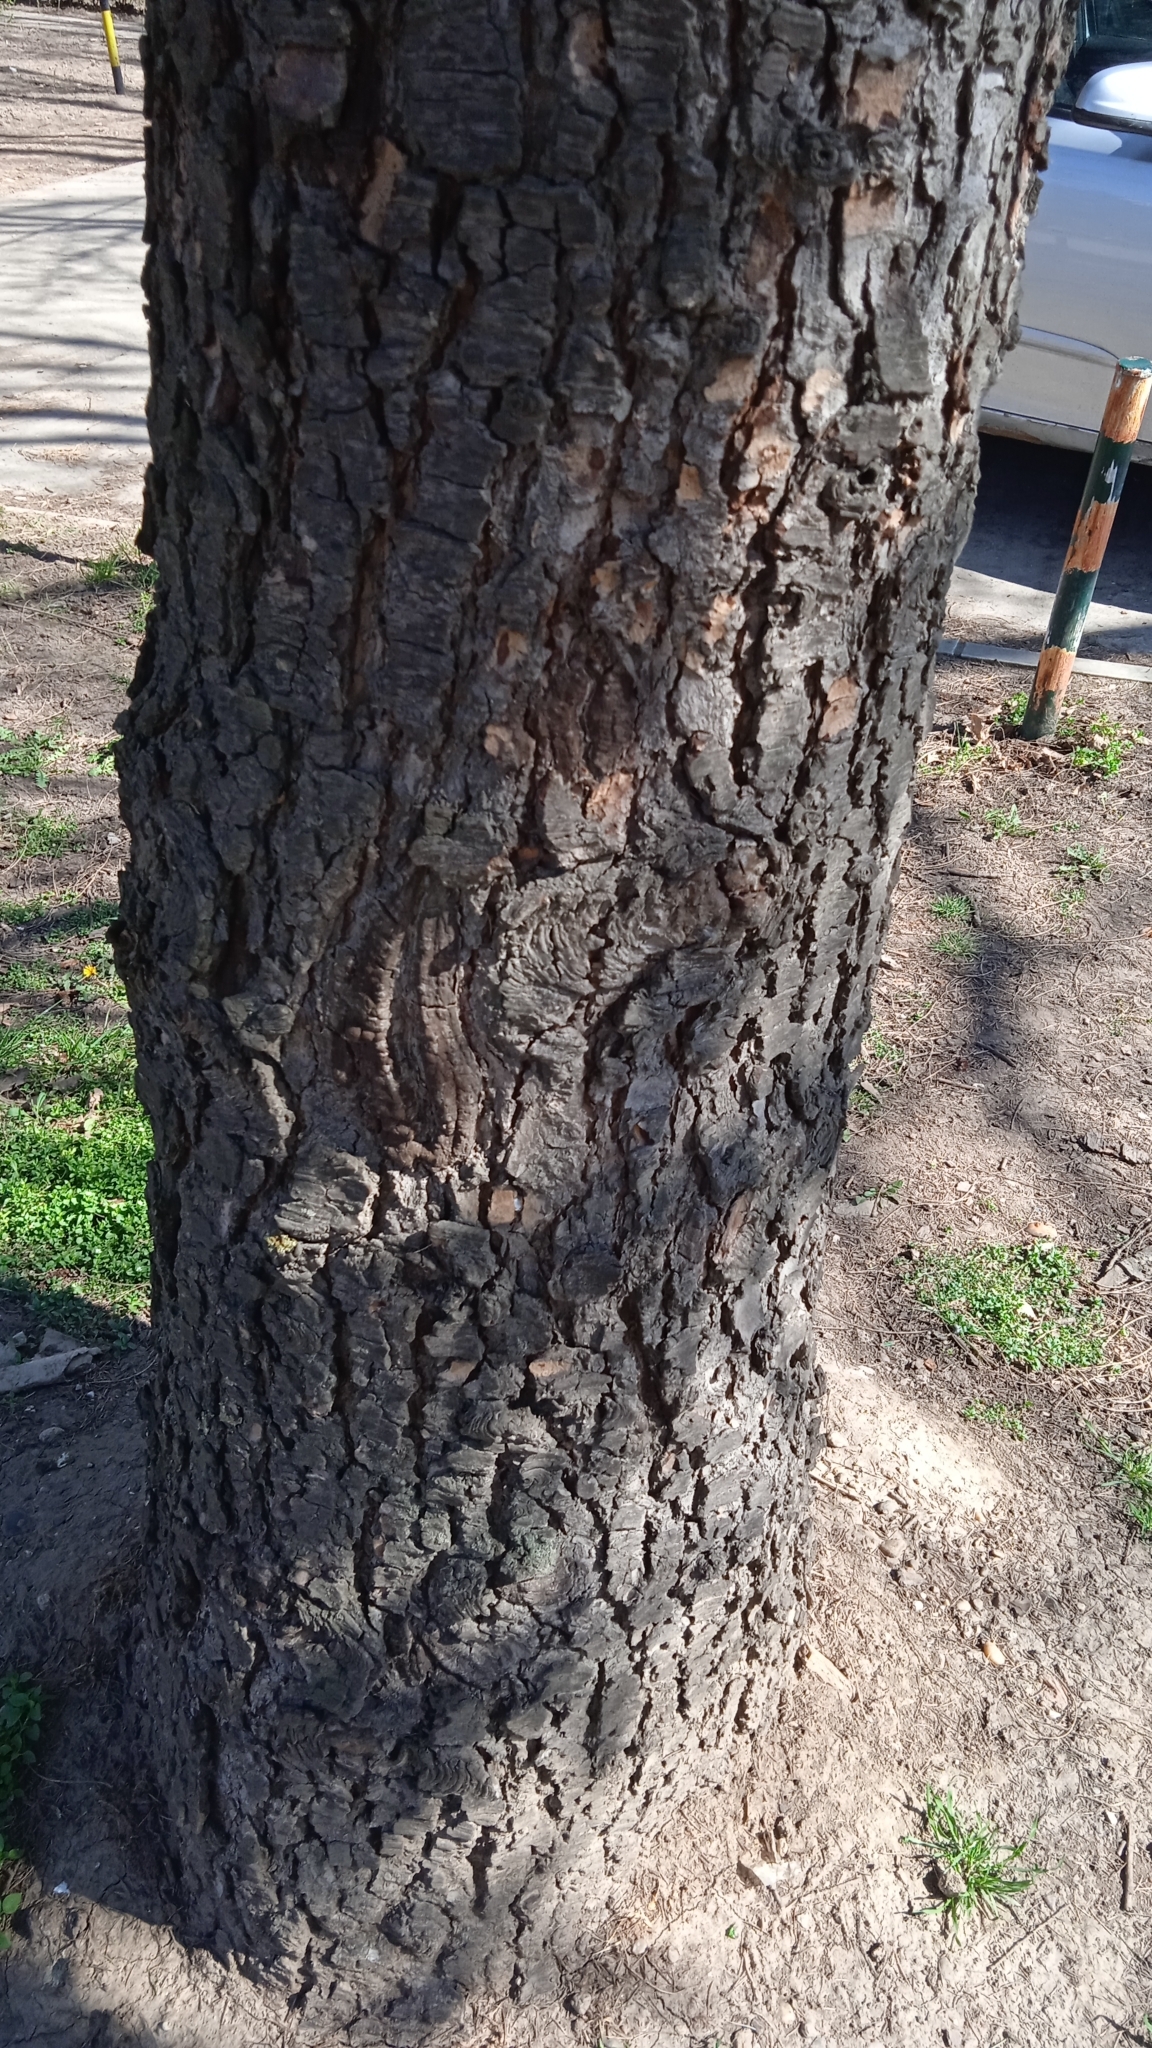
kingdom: Plantae
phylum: Tracheophyta
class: Pinopsida
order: Pinales
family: Pinaceae
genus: Cedrus
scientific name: Cedrus atlantica
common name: Atlas cedar
